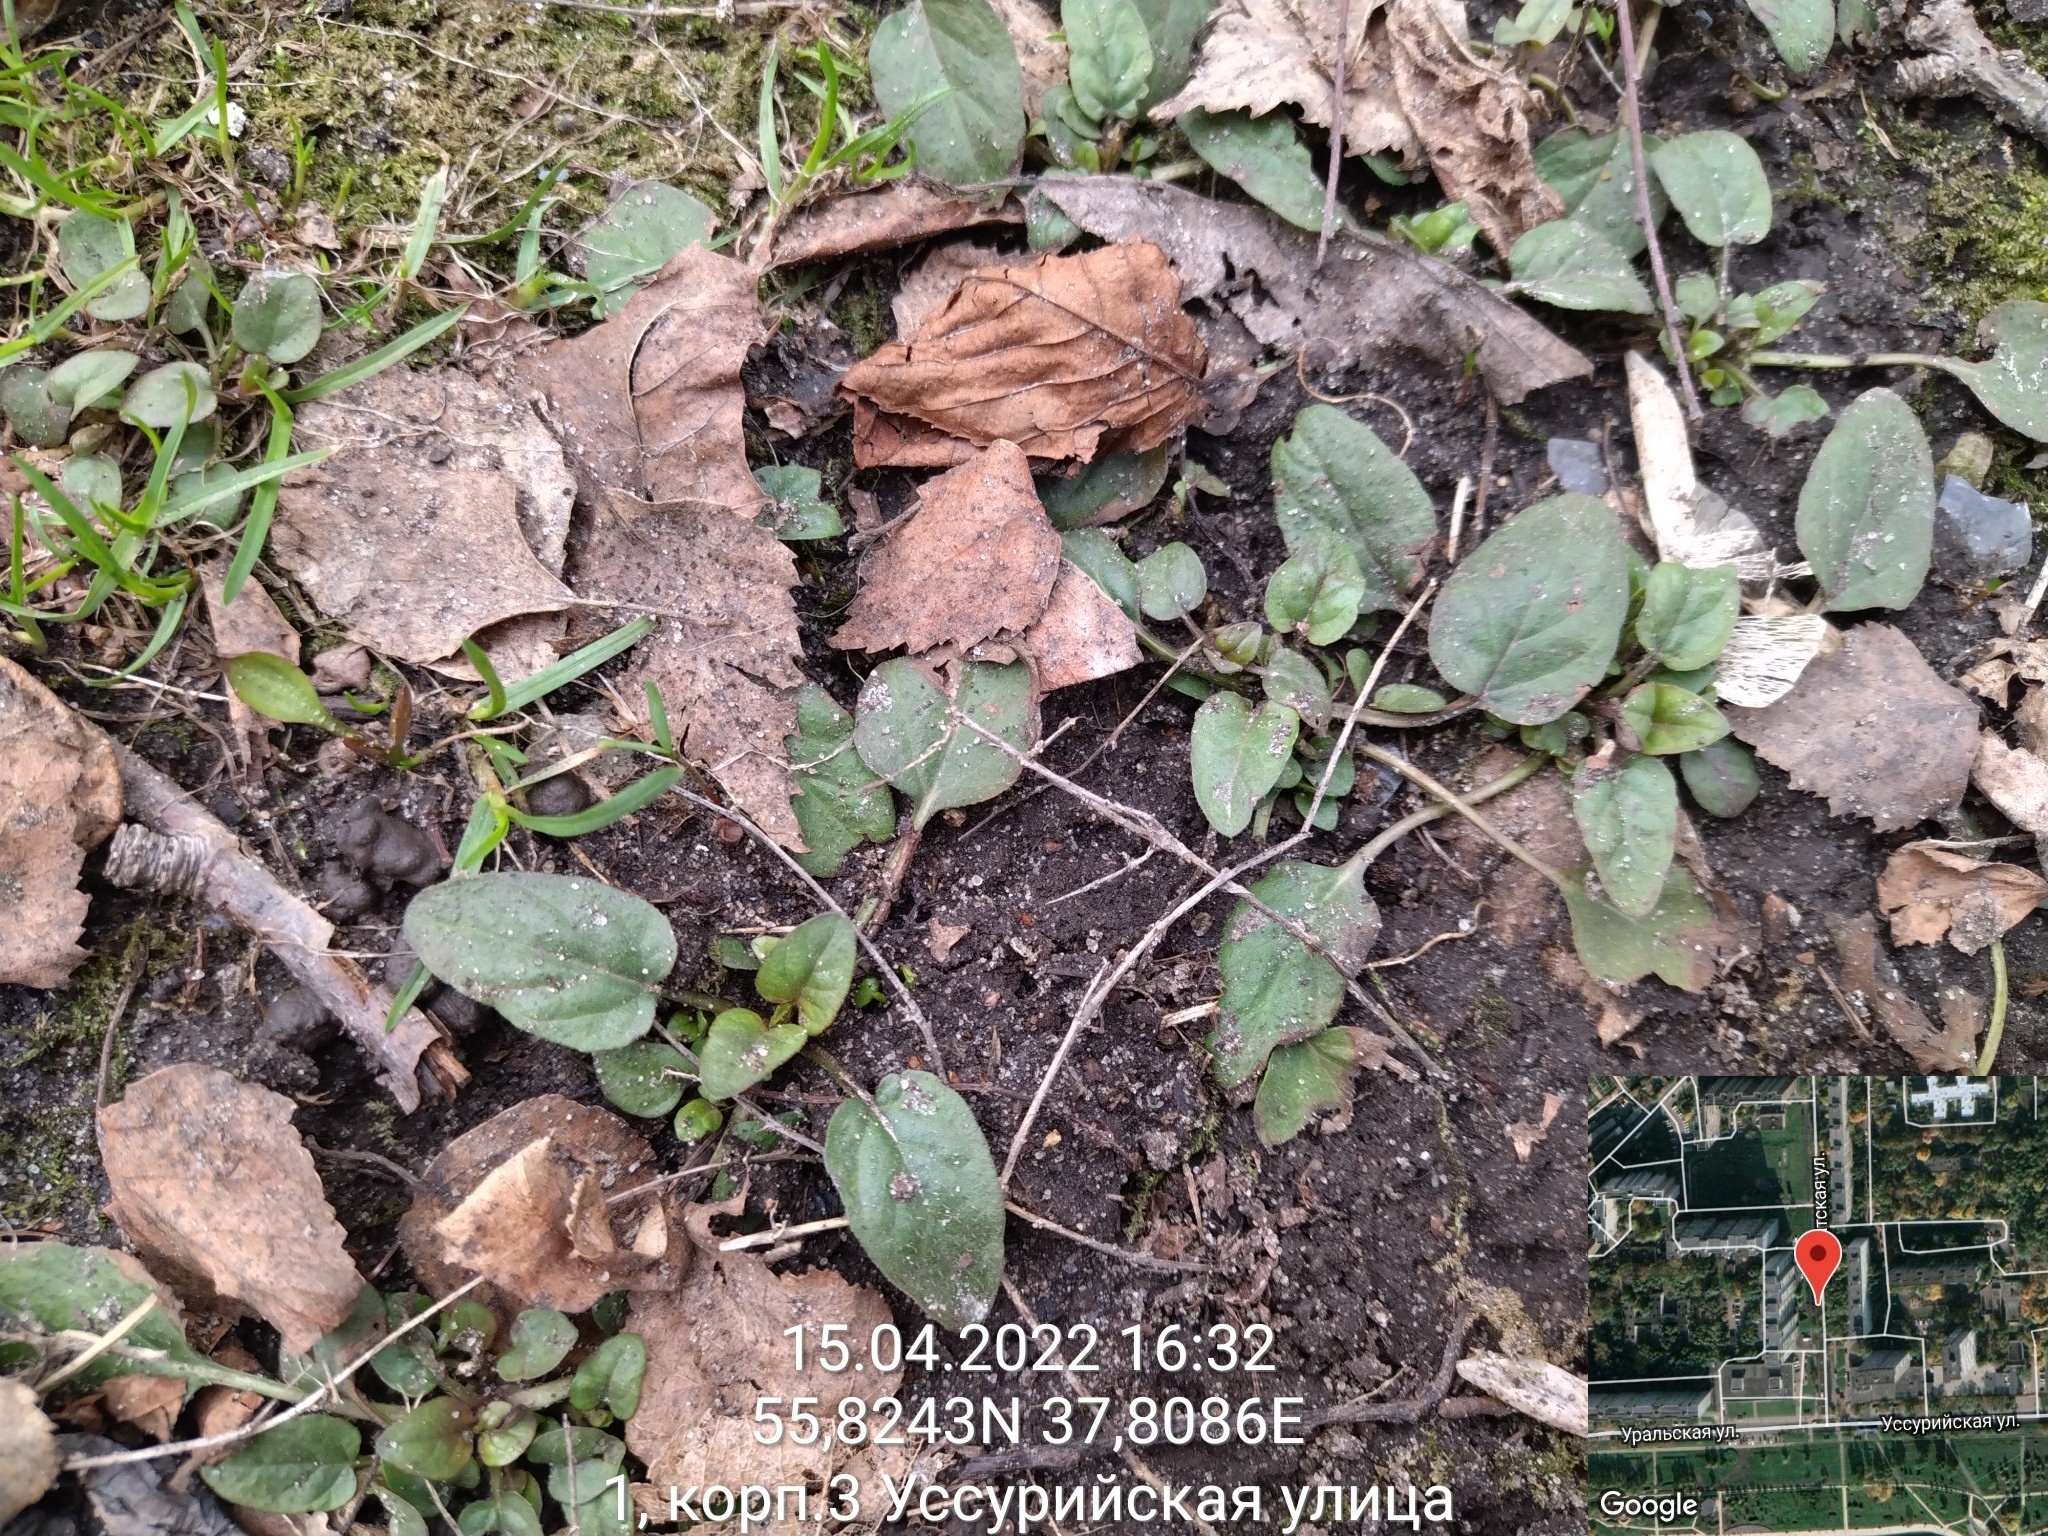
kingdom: Plantae
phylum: Tracheophyta
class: Magnoliopsida
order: Lamiales
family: Lamiaceae
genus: Prunella
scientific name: Prunella vulgaris
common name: Heal-all
